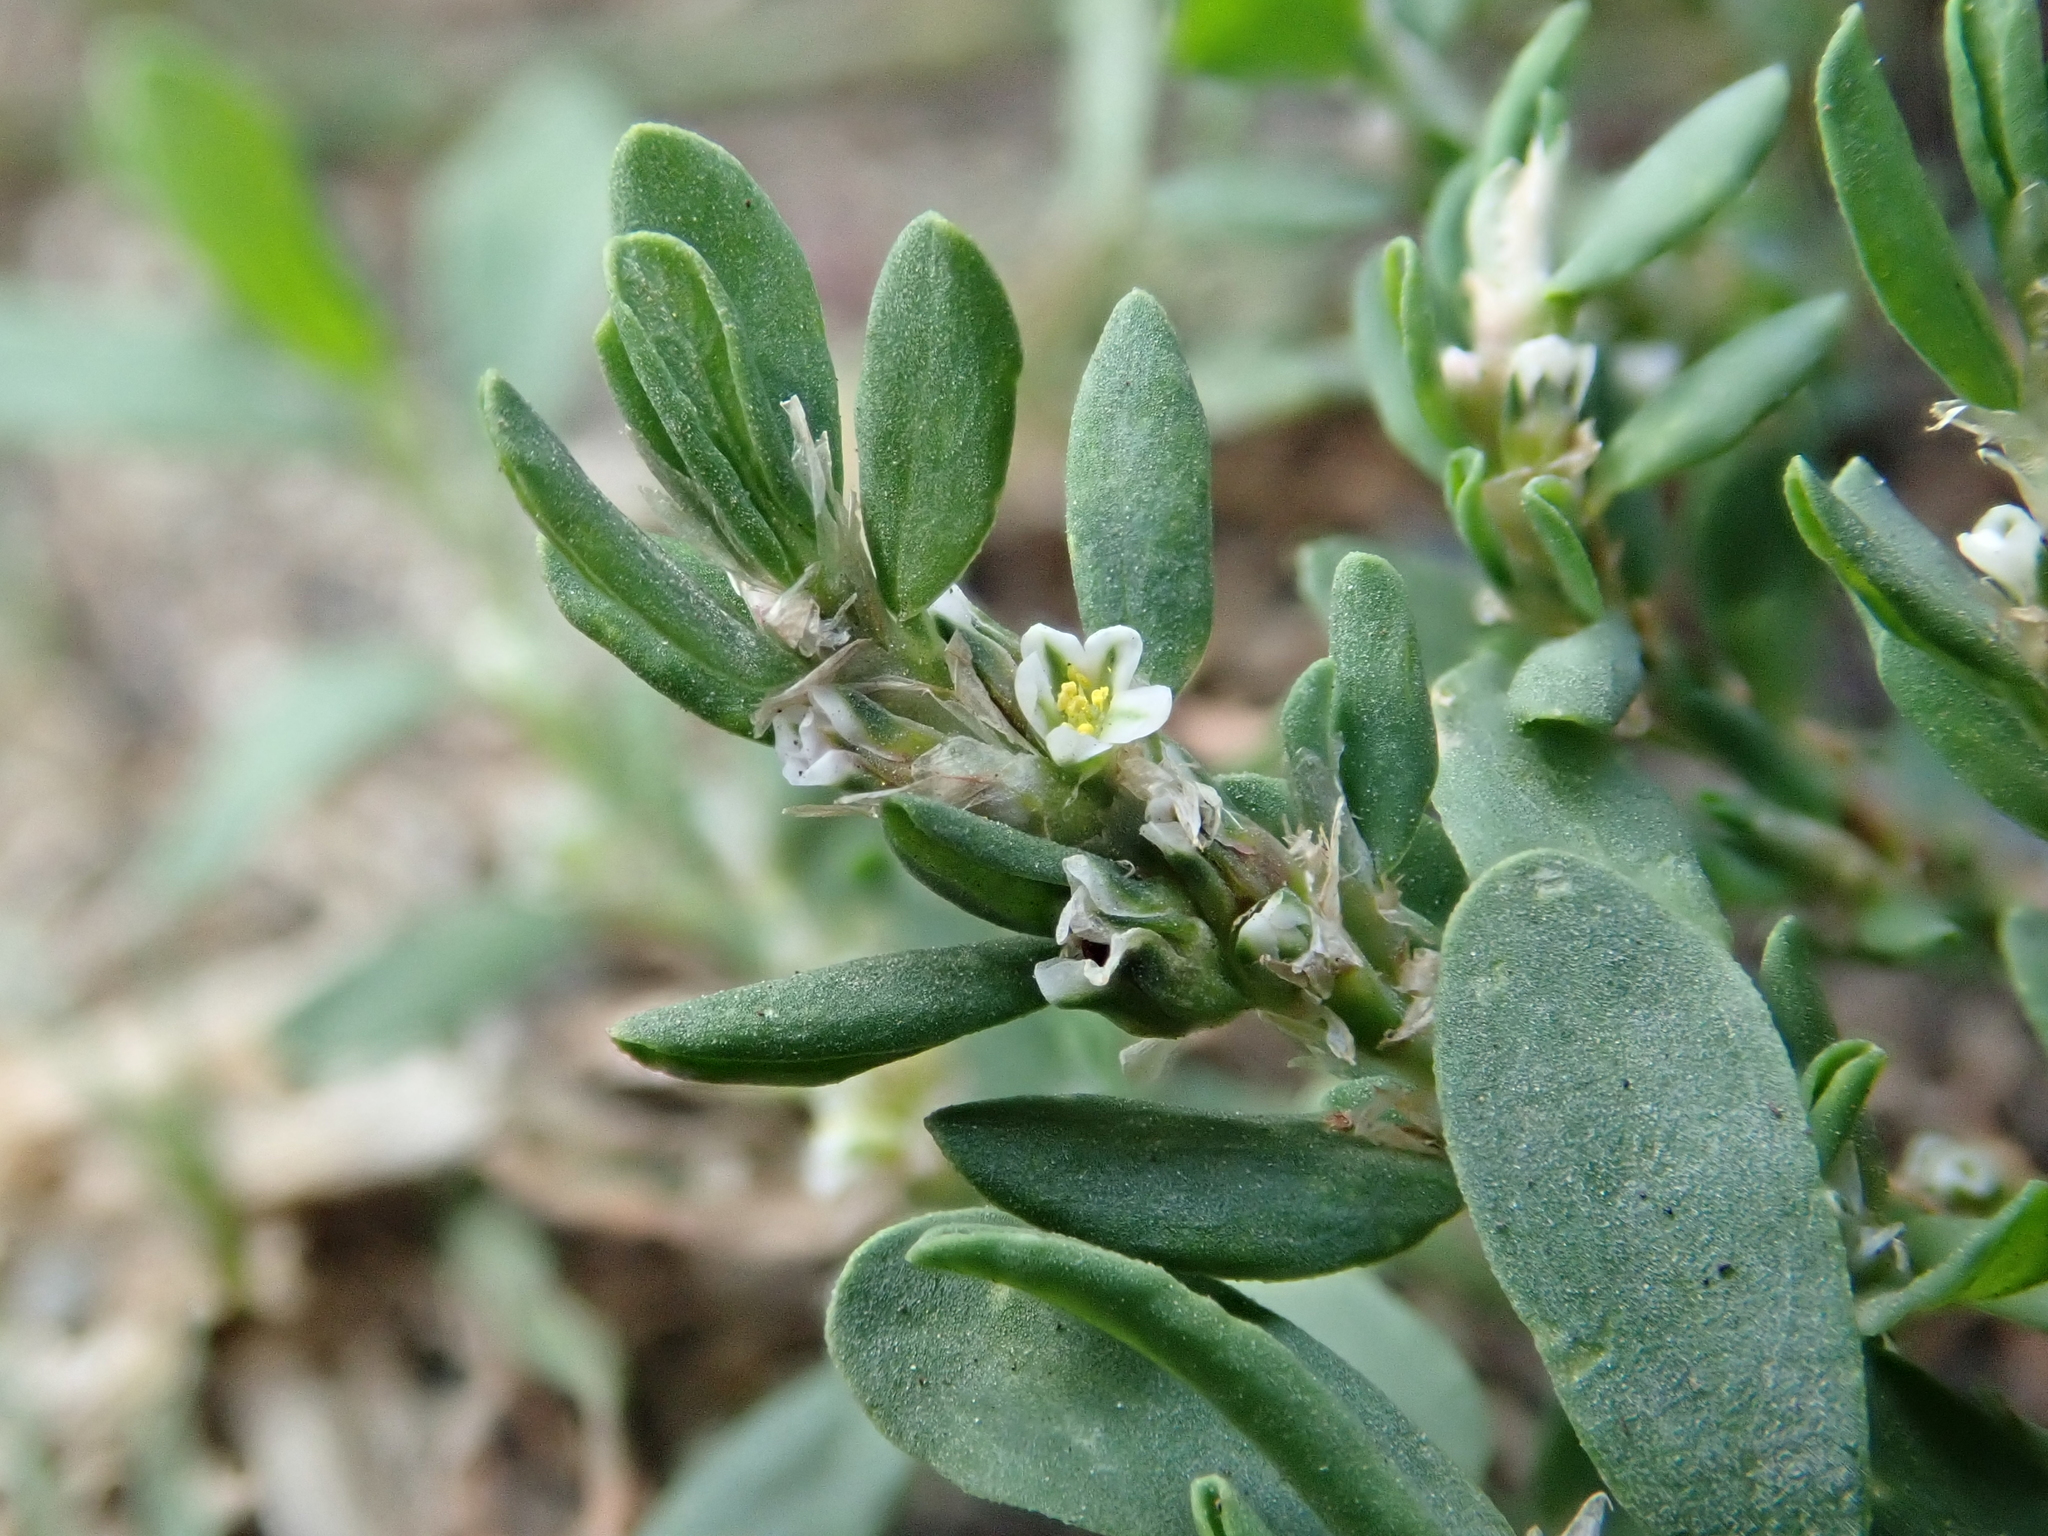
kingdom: Plantae
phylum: Tracheophyta
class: Magnoliopsida
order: Caryophyllales
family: Polygonaceae
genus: Polygonum
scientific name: Polygonum aviculare
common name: Prostrate knotweed
